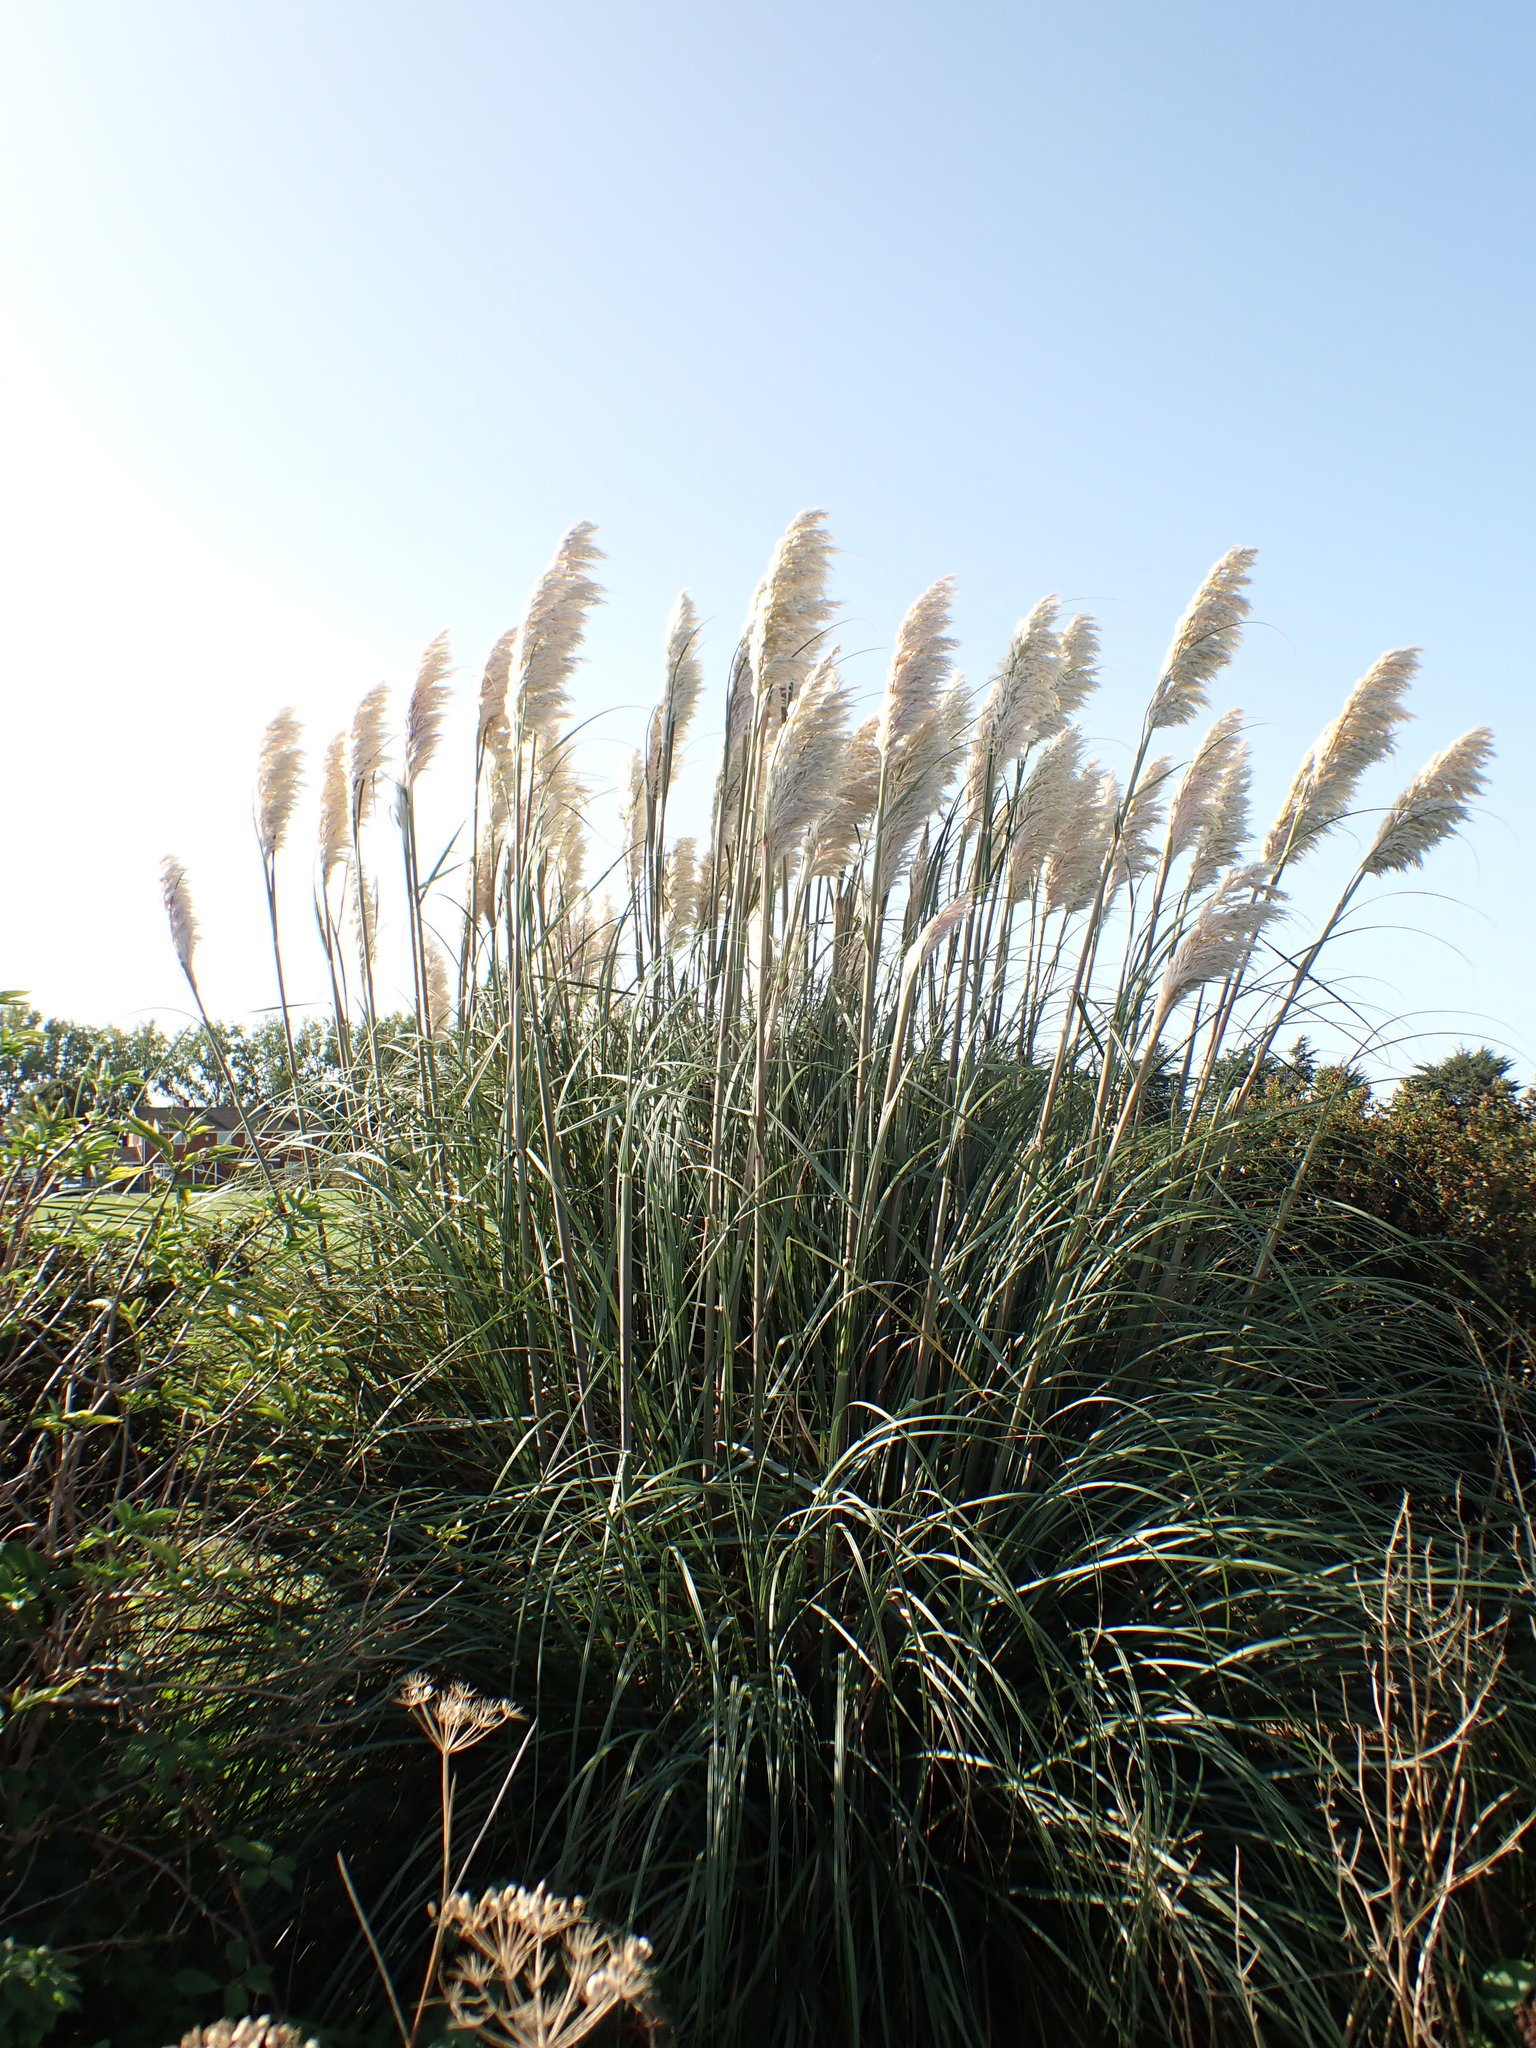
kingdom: Plantae
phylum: Tracheophyta
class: Liliopsida
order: Poales
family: Poaceae
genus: Cortaderia
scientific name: Cortaderia selloana
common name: Uruguayan pampas grass
